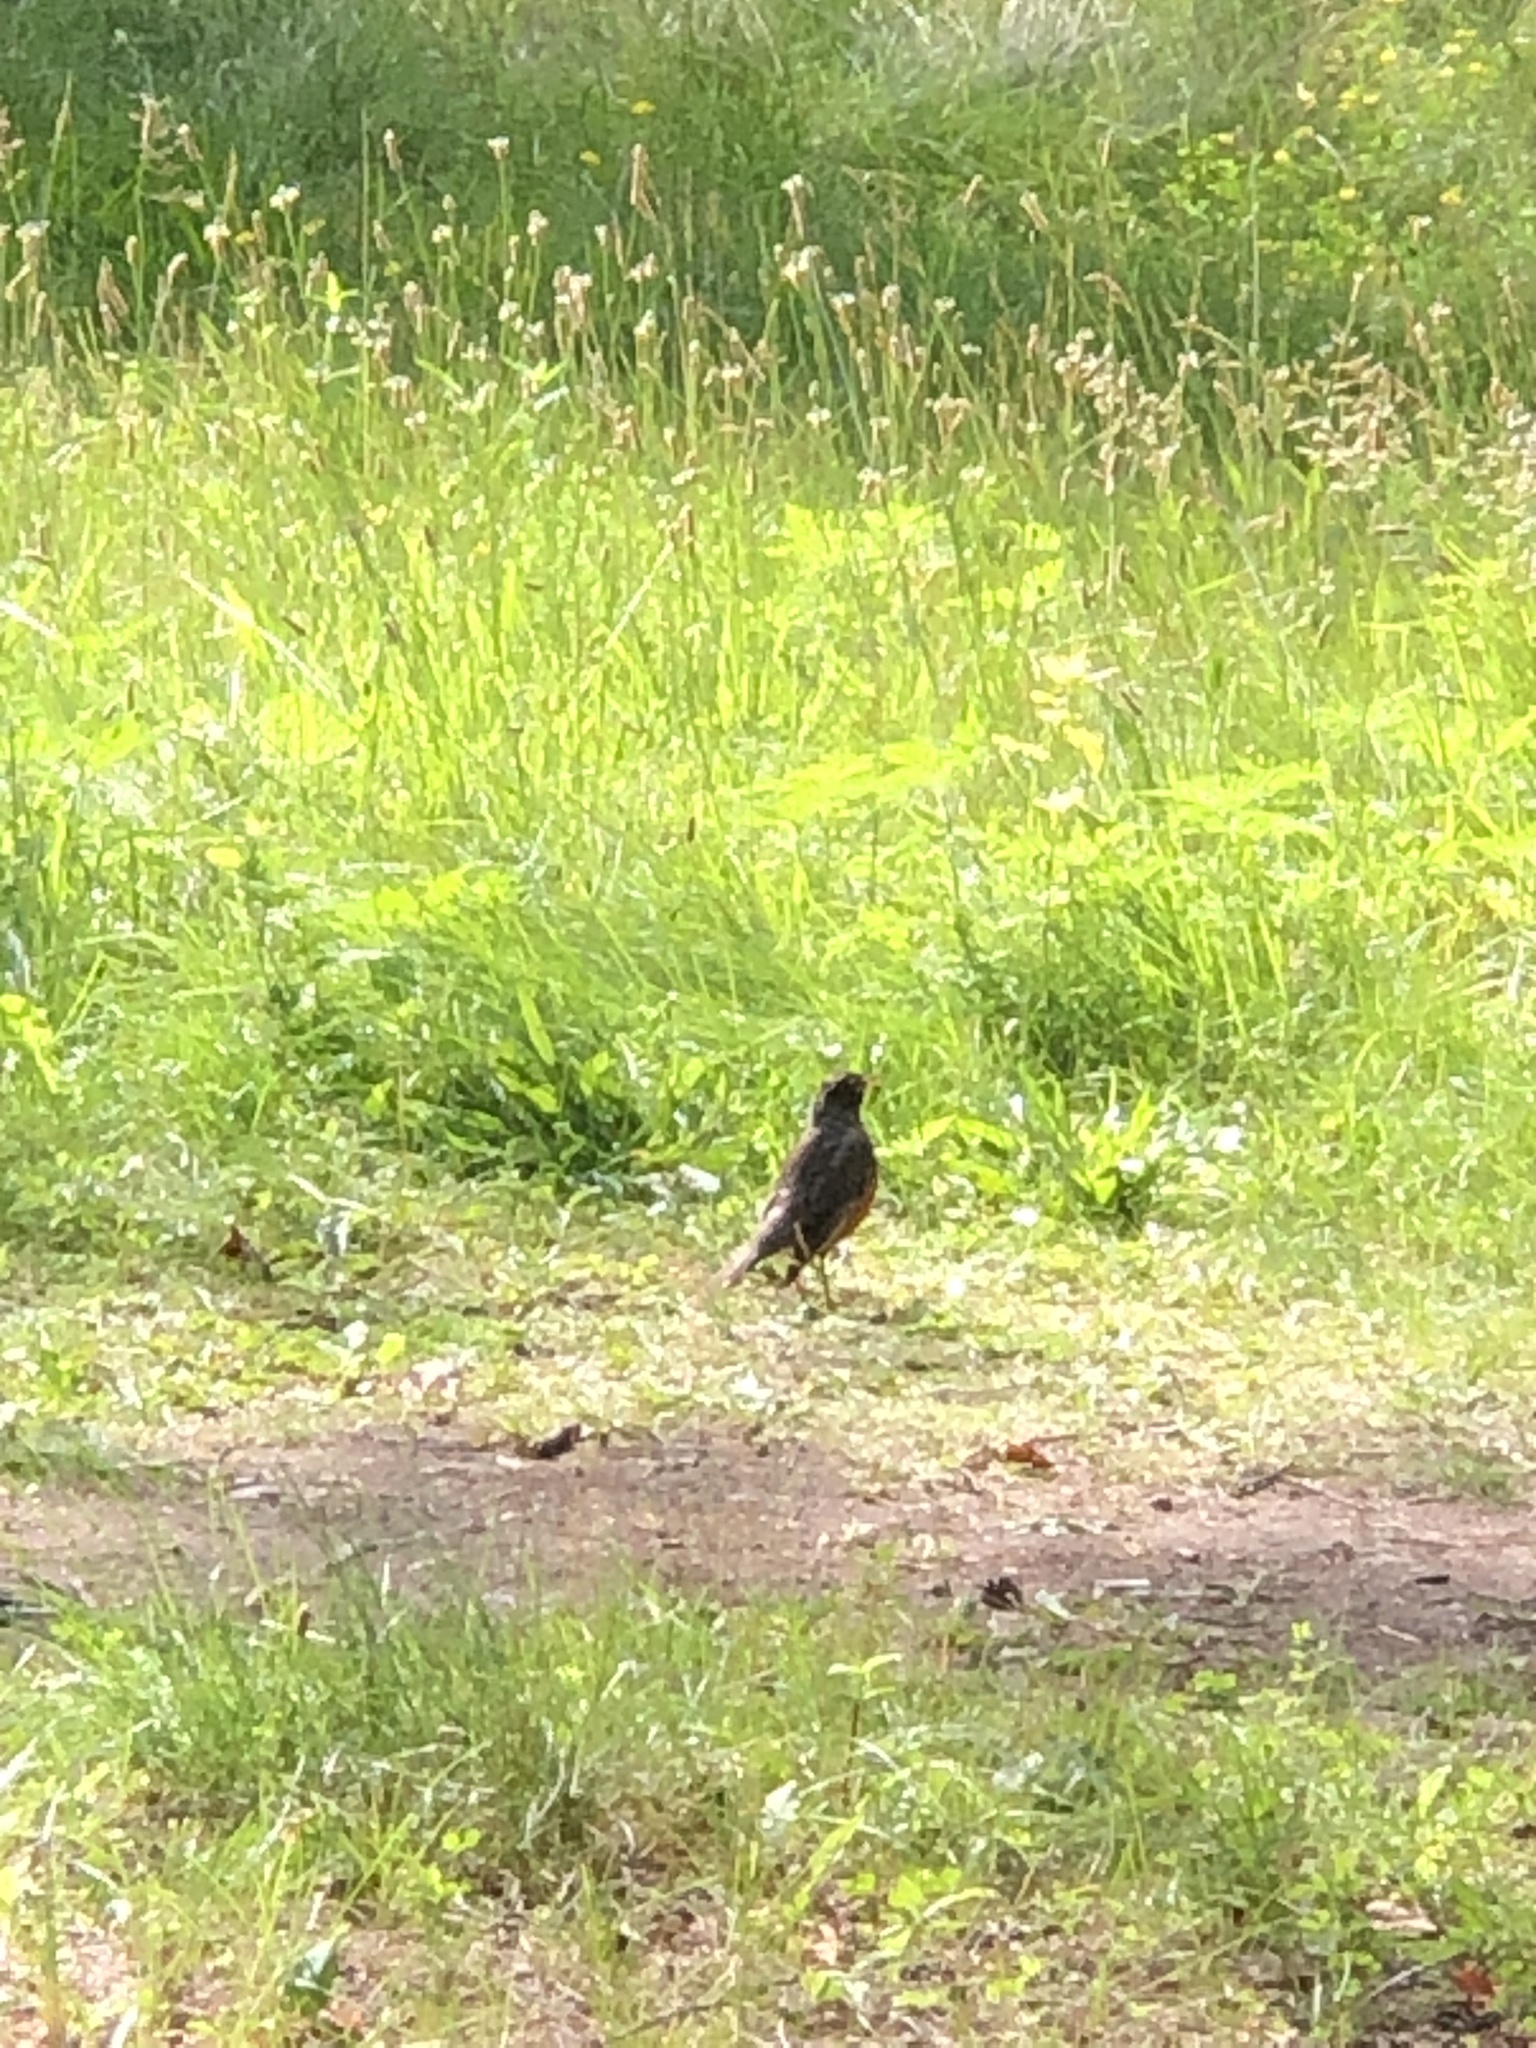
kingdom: Animalia
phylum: Chordata
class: Aves
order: Passeriformes
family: Turdidae
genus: Turdus
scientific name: Turdus migratorius
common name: American robin
